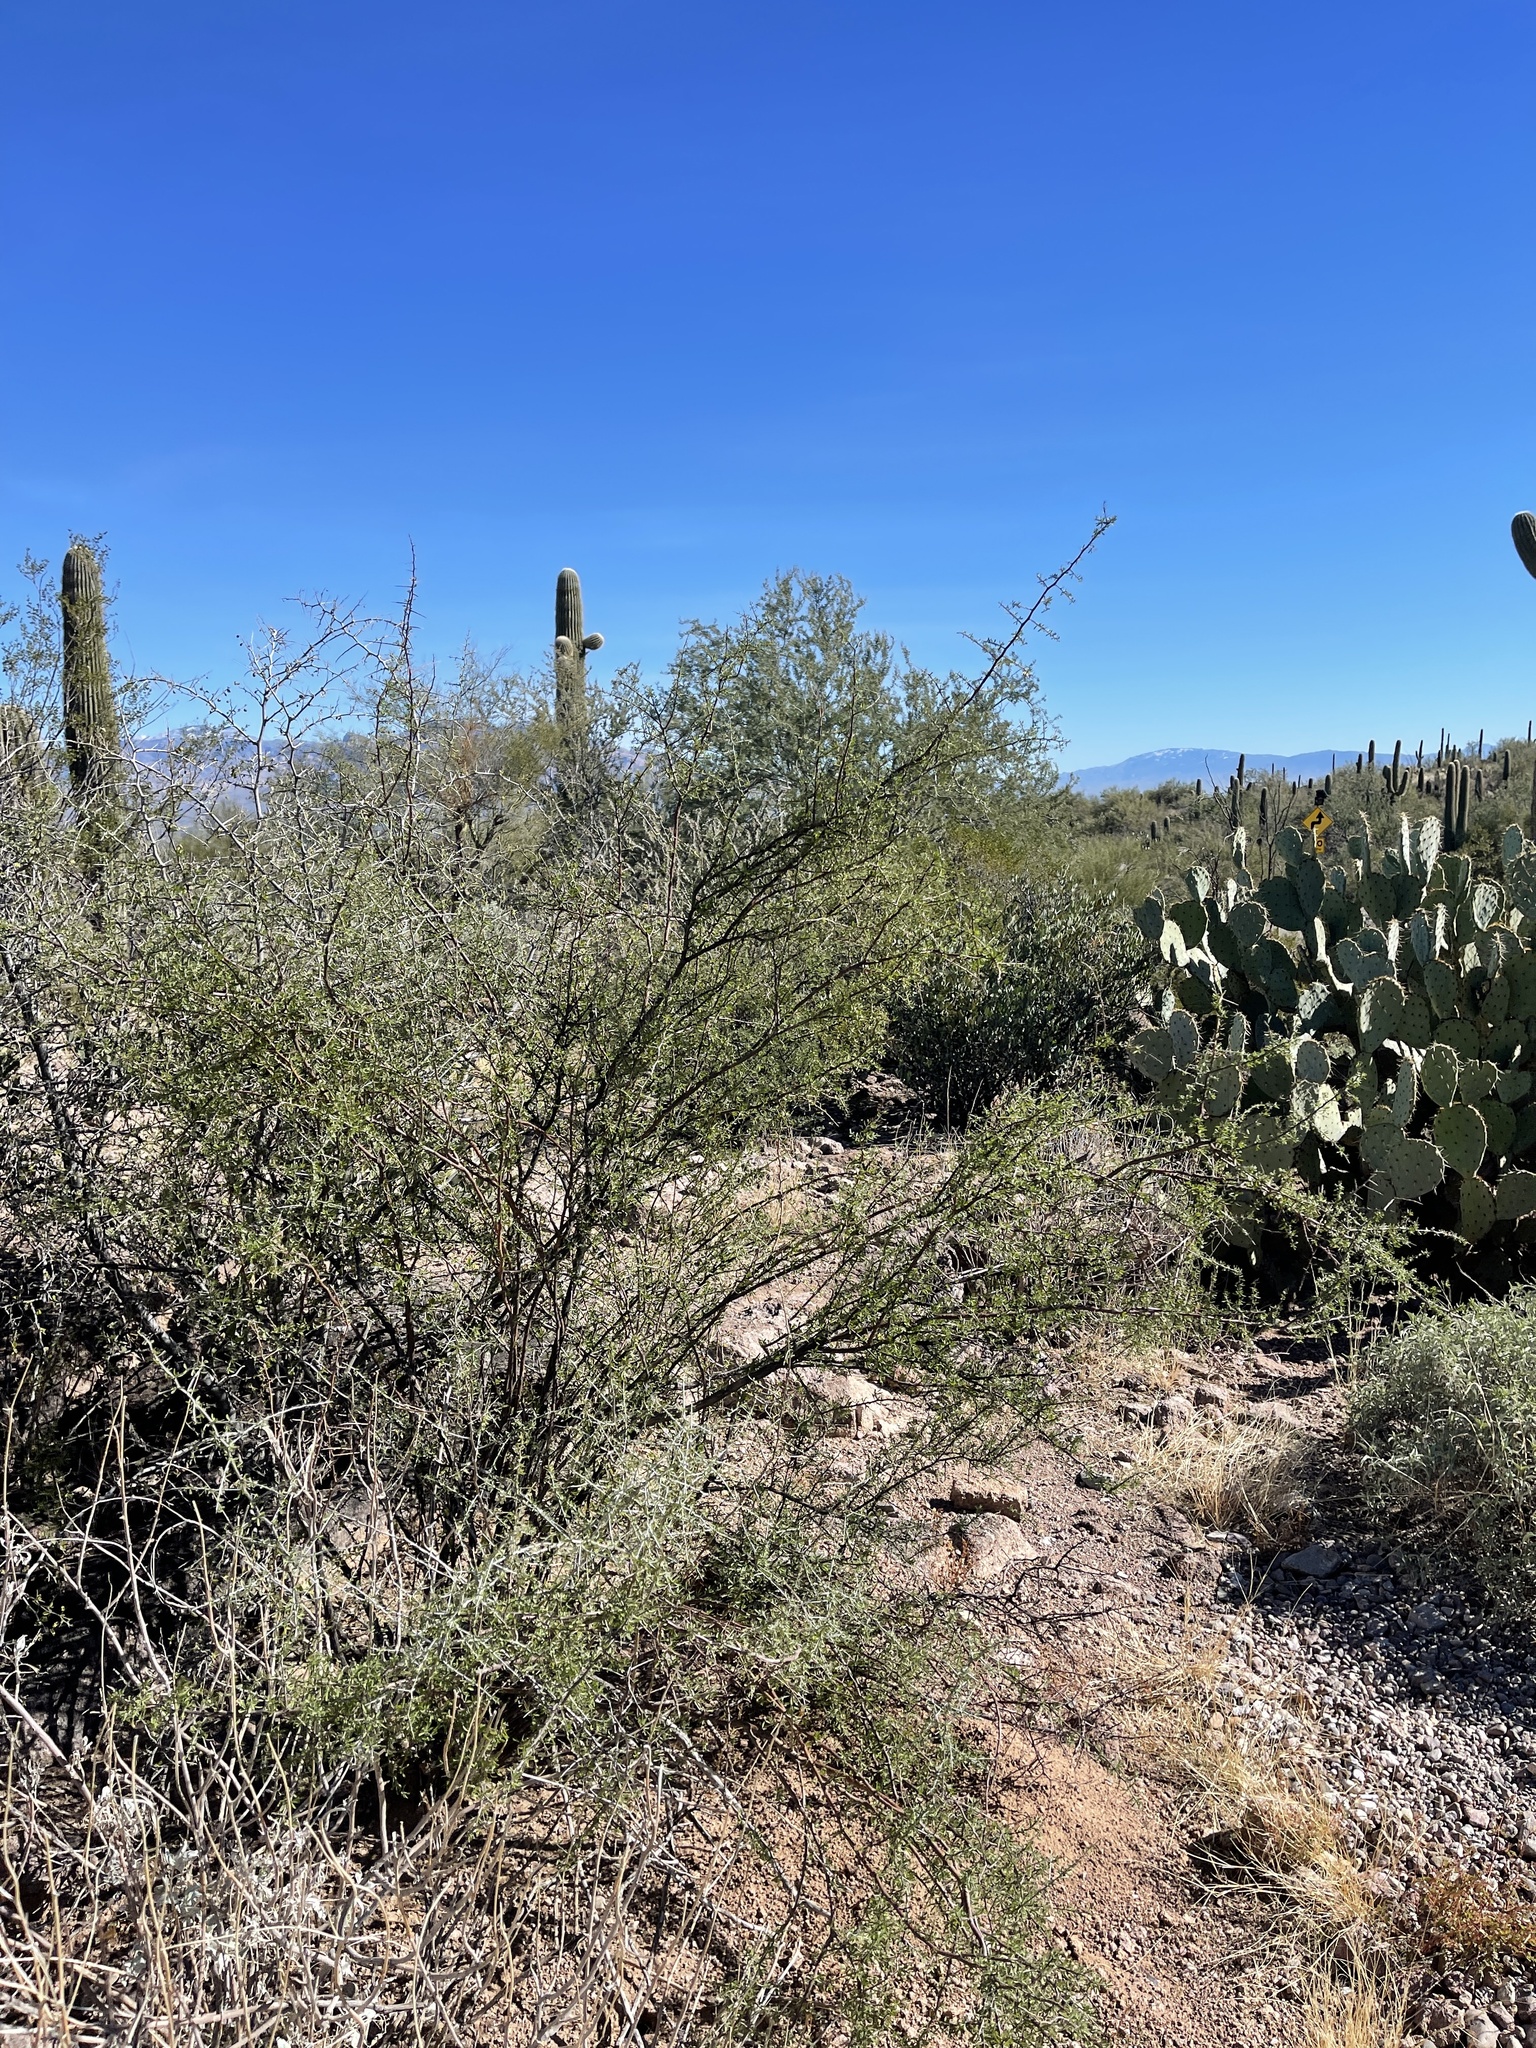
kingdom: Plantae
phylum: Tracheophyta
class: Magnoliopsida
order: Solanales
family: Solanaceae
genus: Lycium
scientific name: Lycium berlandieri
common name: Berlandier wolfberry
